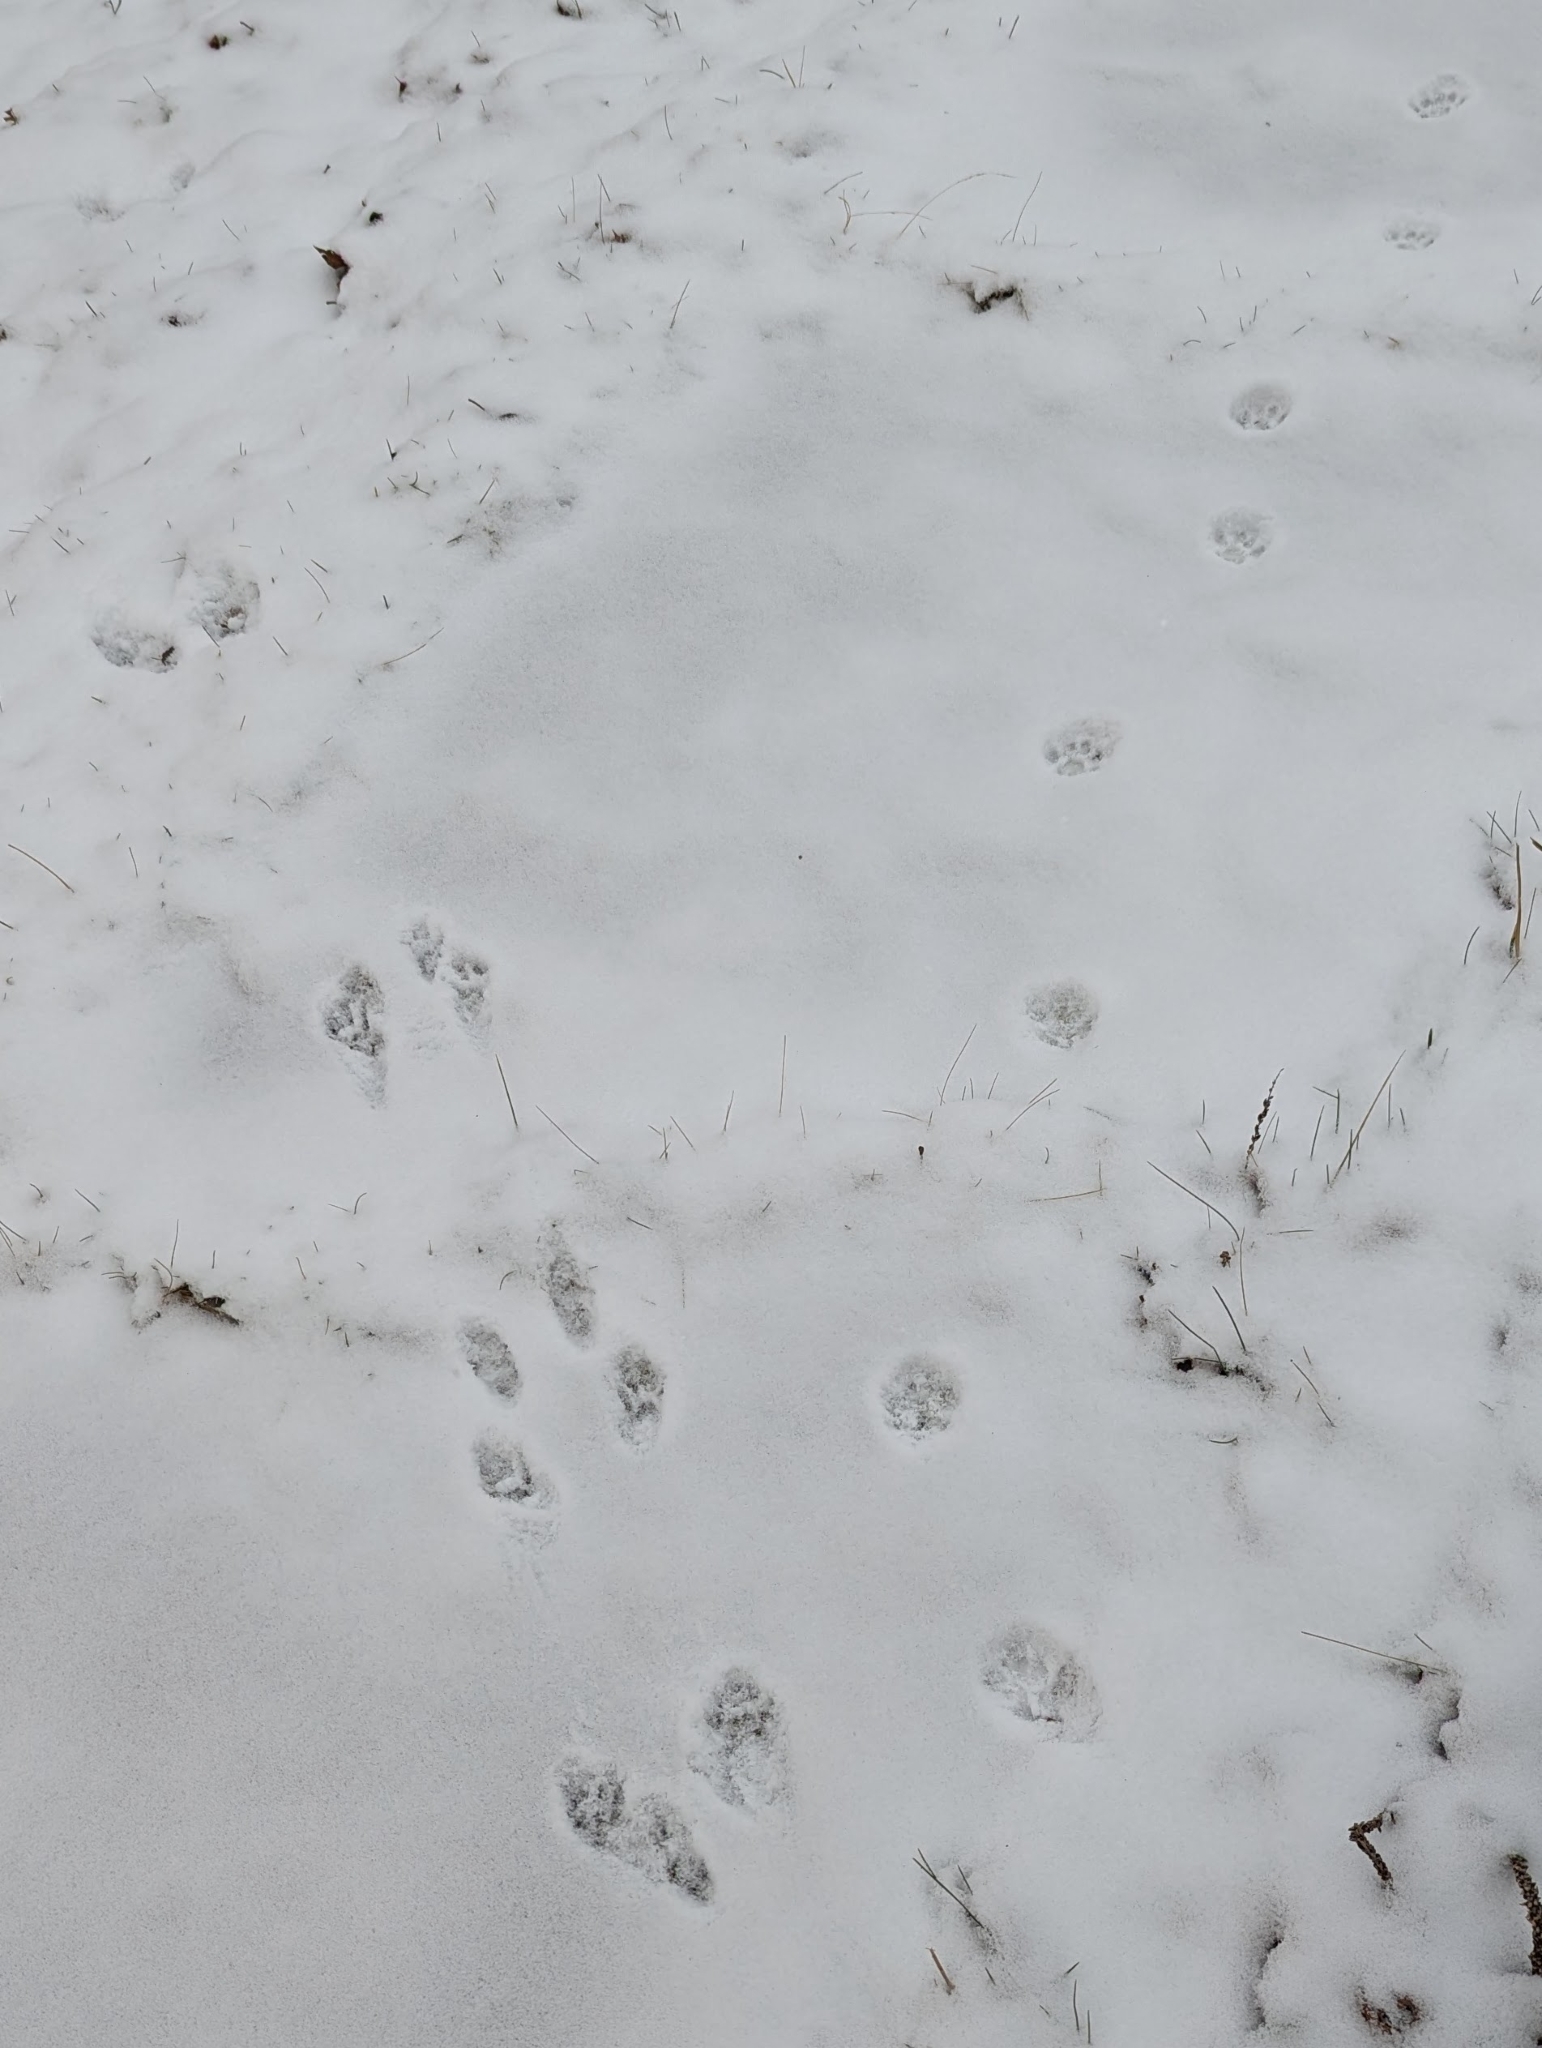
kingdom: Animalia
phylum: Chordata
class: Mammalia
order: Carnivora
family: Felidae
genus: Felis
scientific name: Felis catus
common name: Domestic cat
